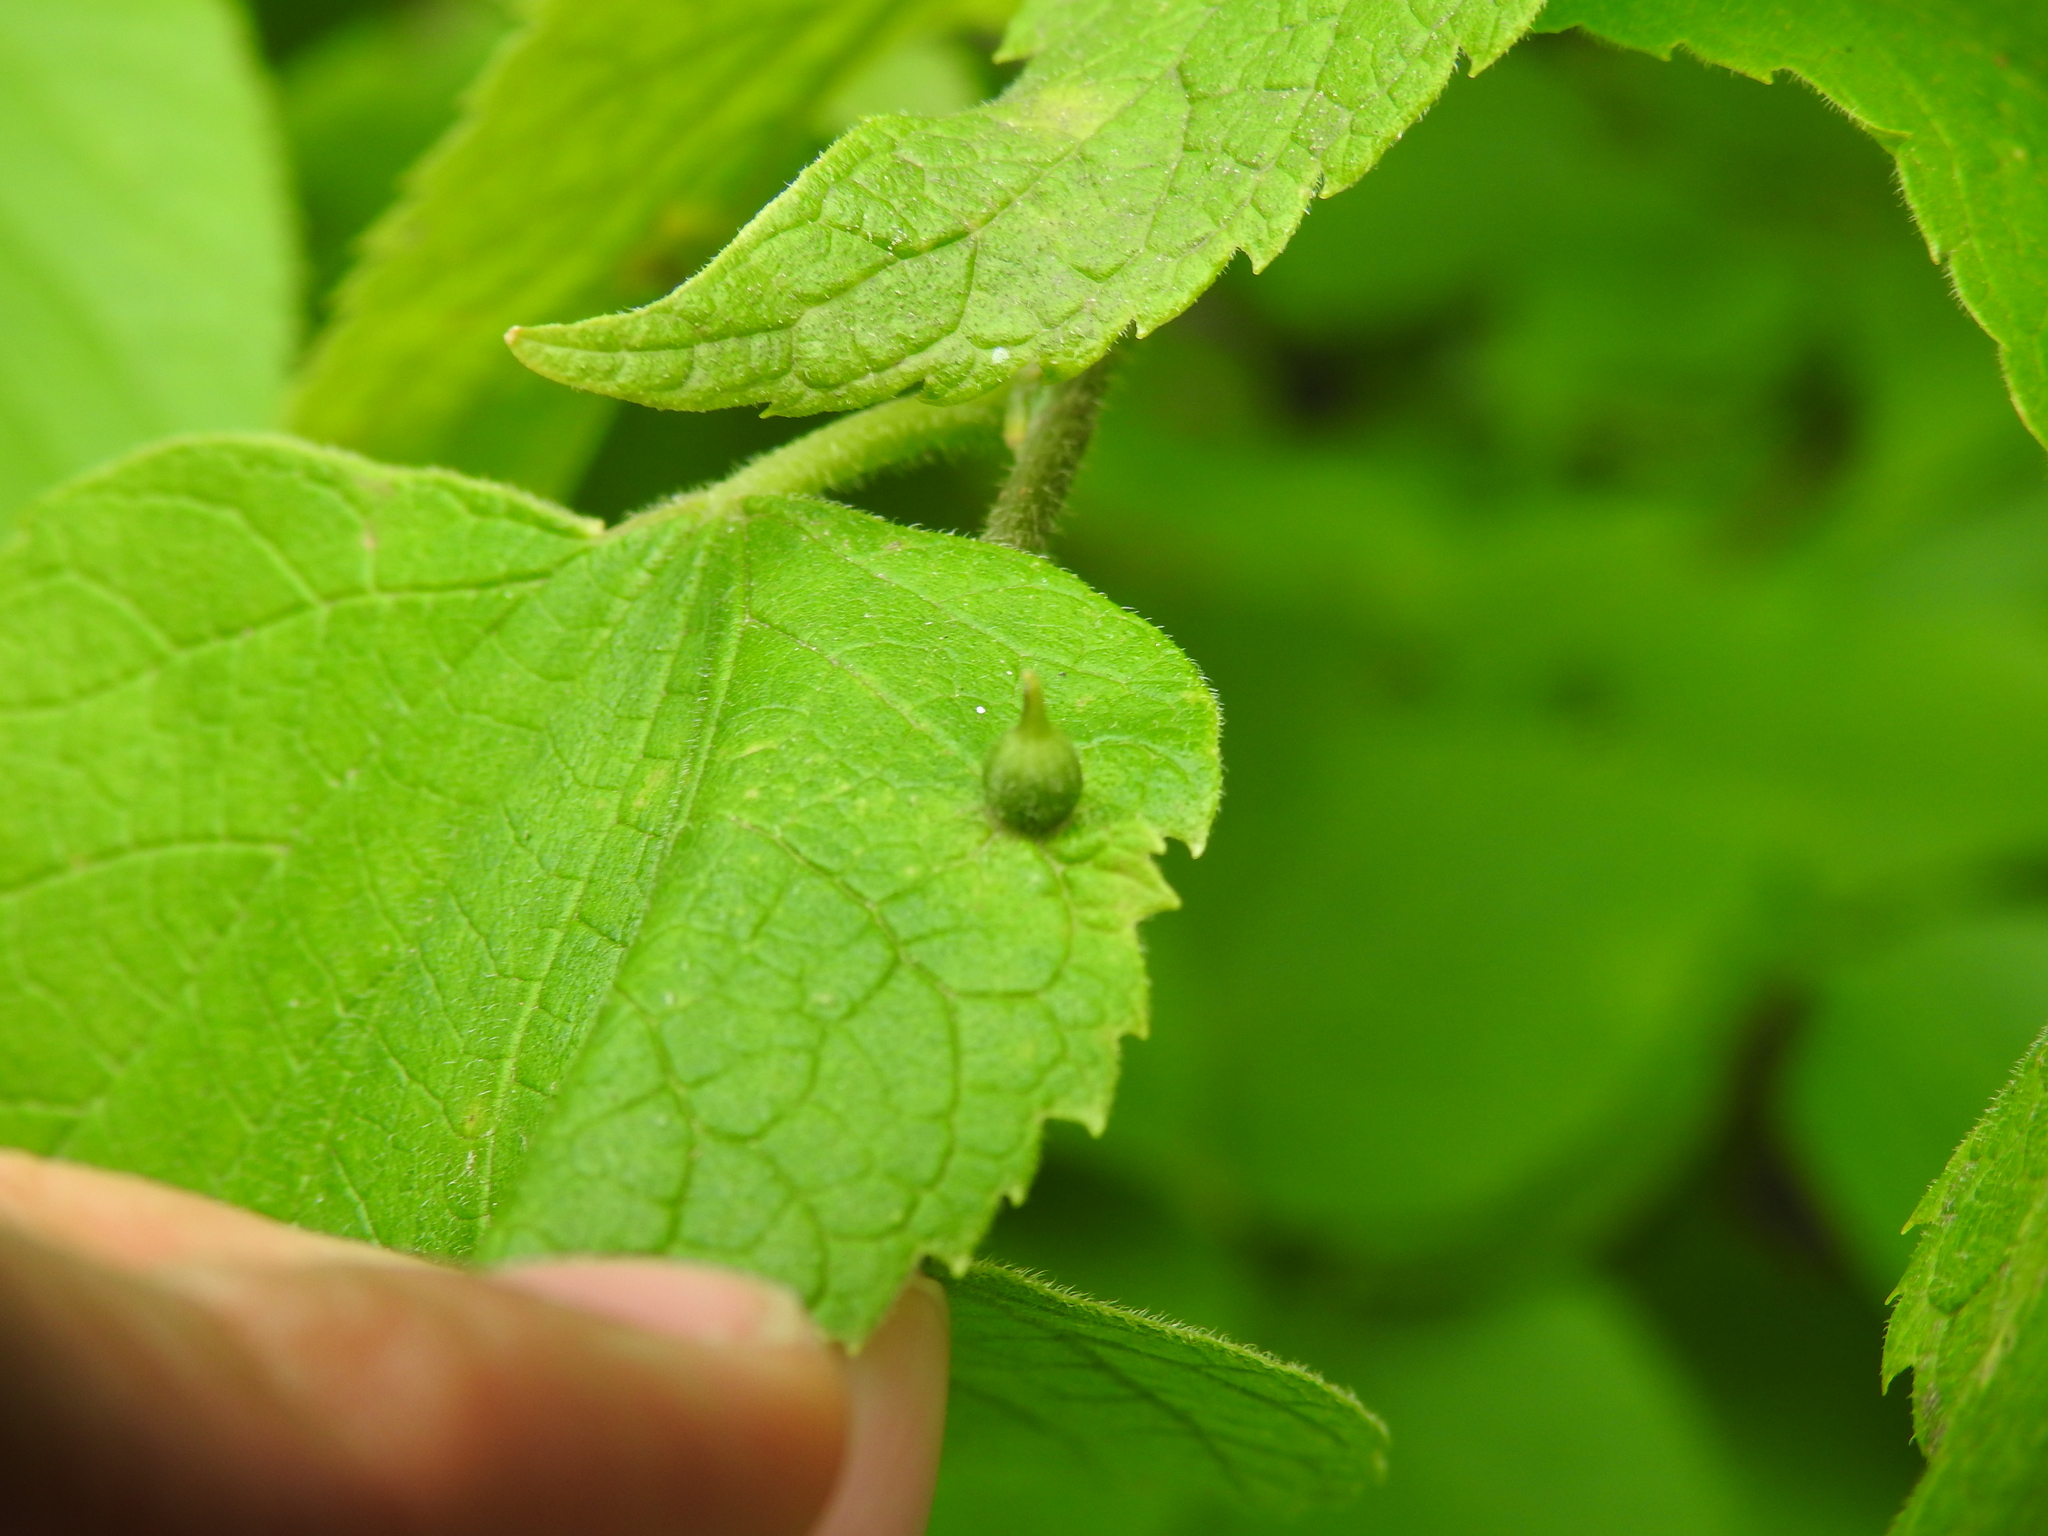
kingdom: Animalia
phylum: Arthropoda
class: Insecta
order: Diptera
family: Cecidomyiidae
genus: Celticecis
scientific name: Celticecis ovata
